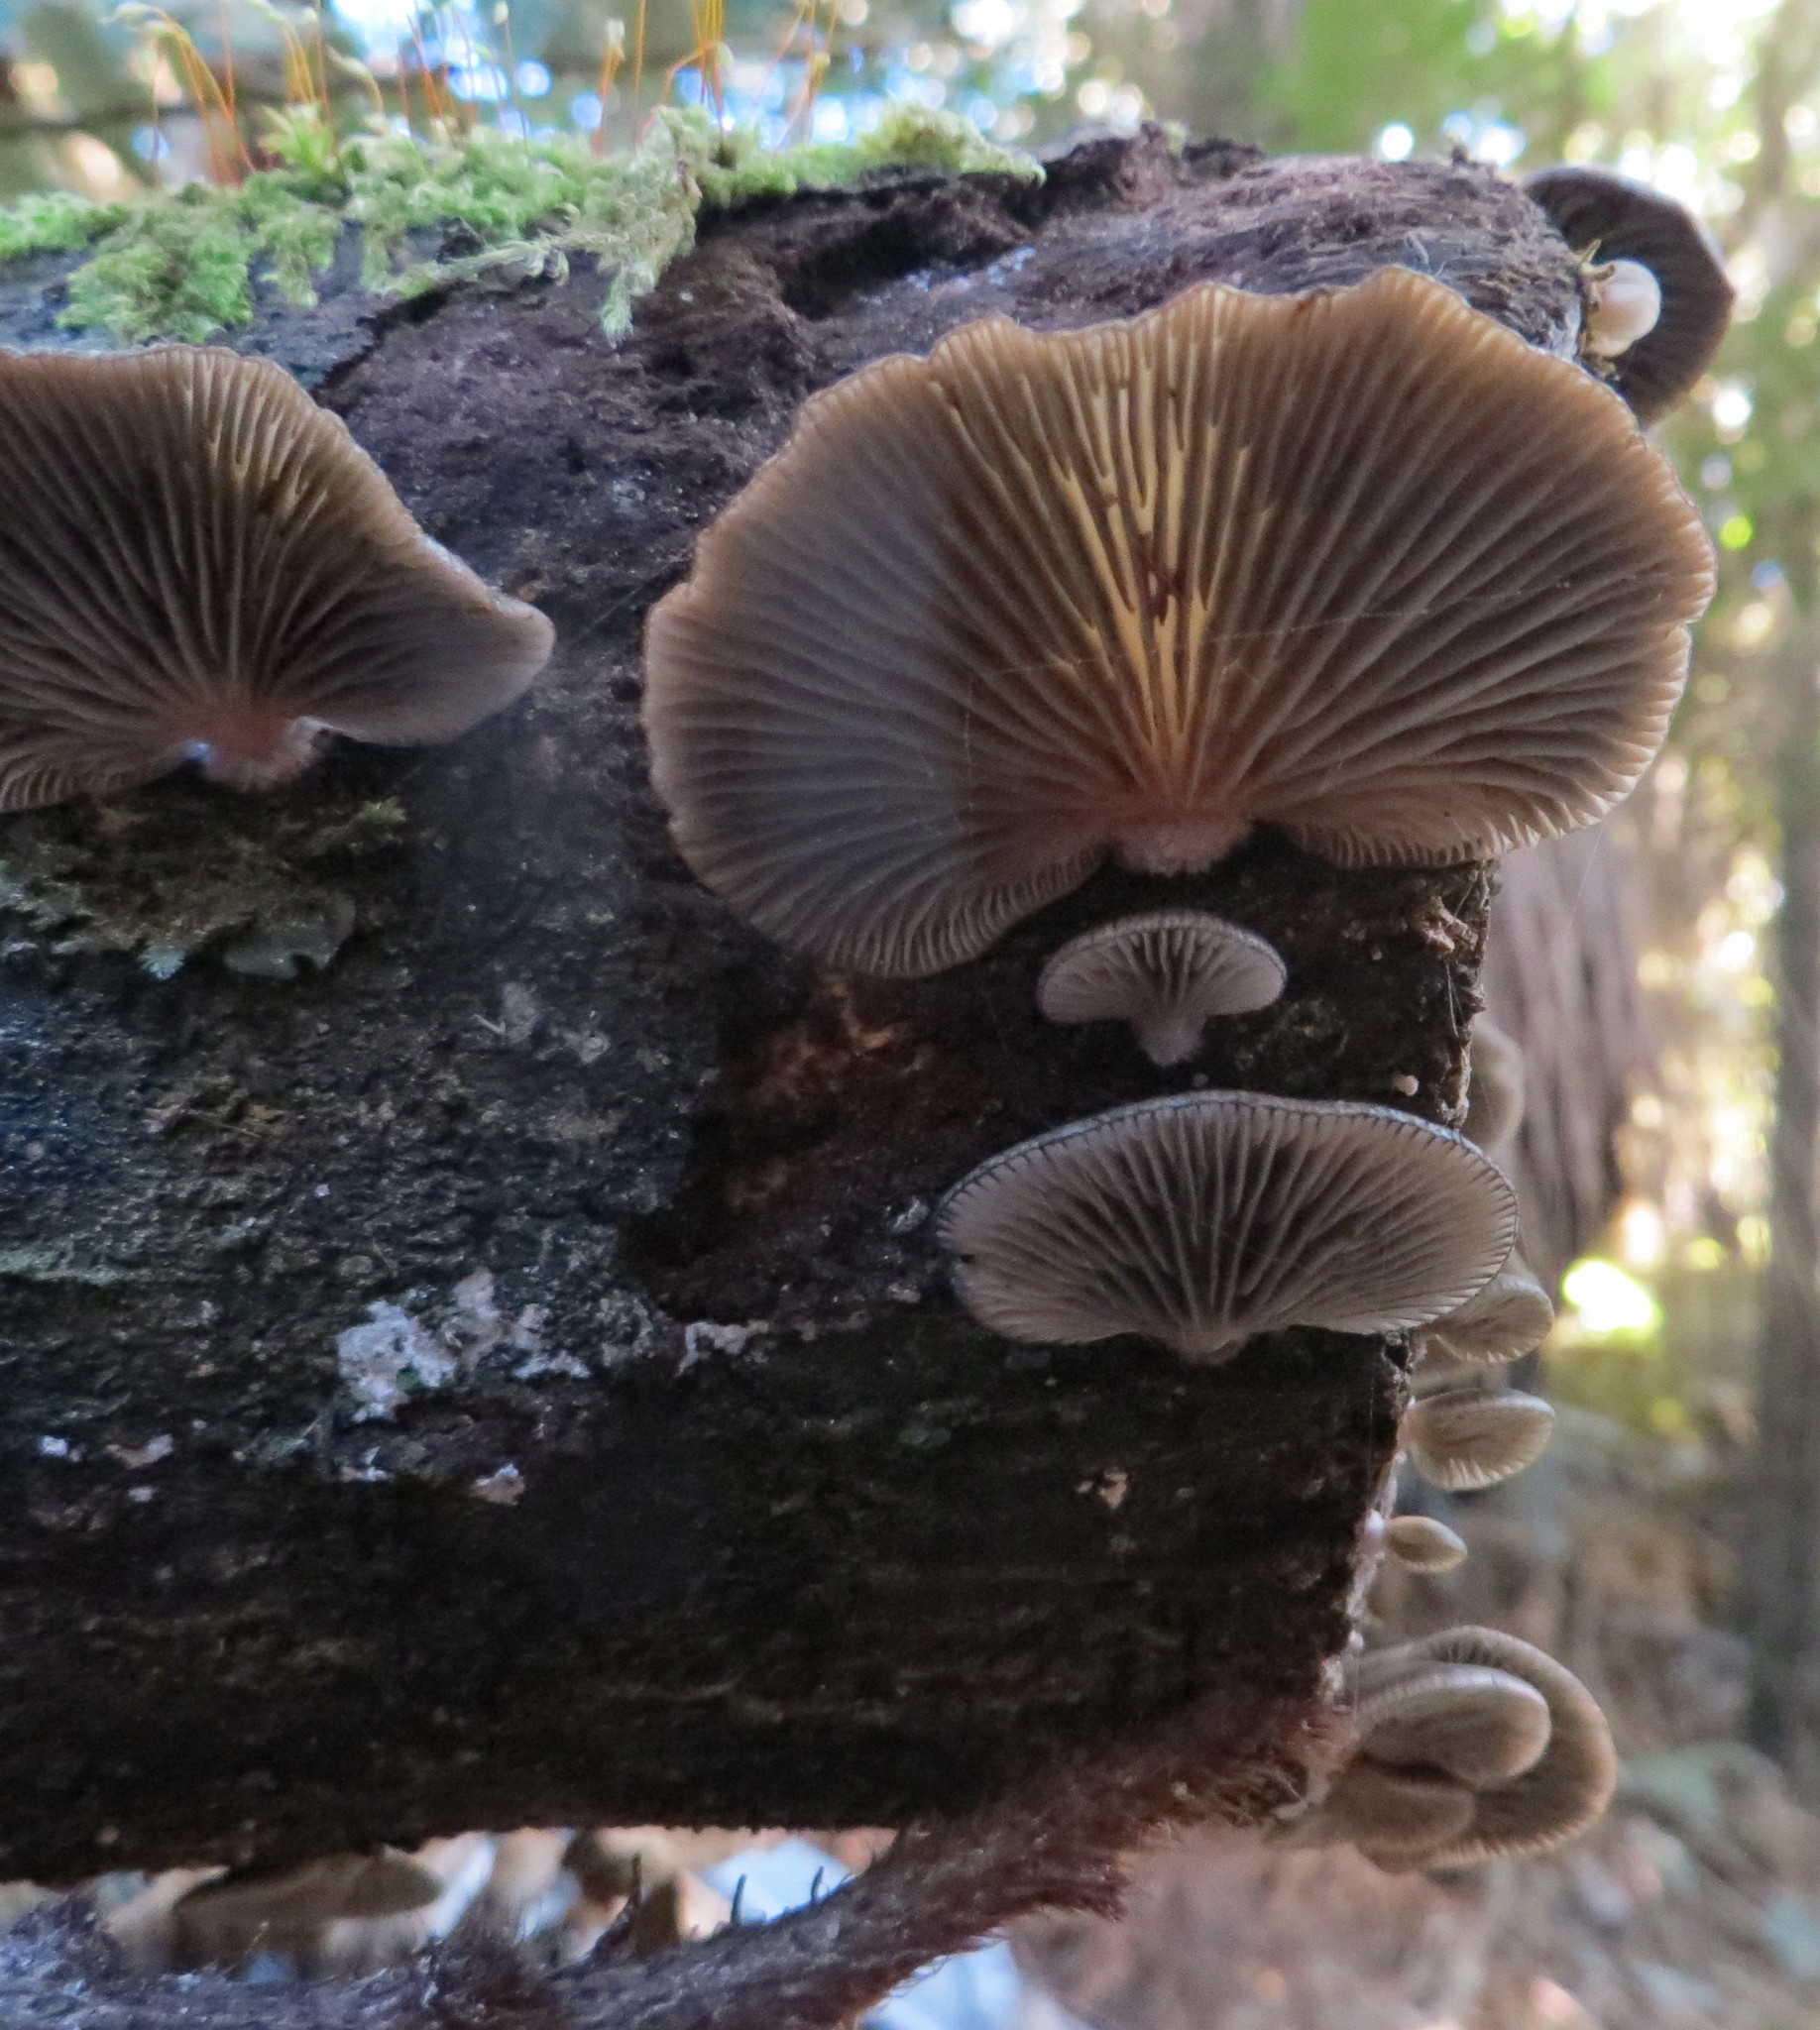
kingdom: Fungi
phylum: Basidiomycota
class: Agaricomycetes
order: Agaricales
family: Mycenaceae
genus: Panellus
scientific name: Panellus longinquus
